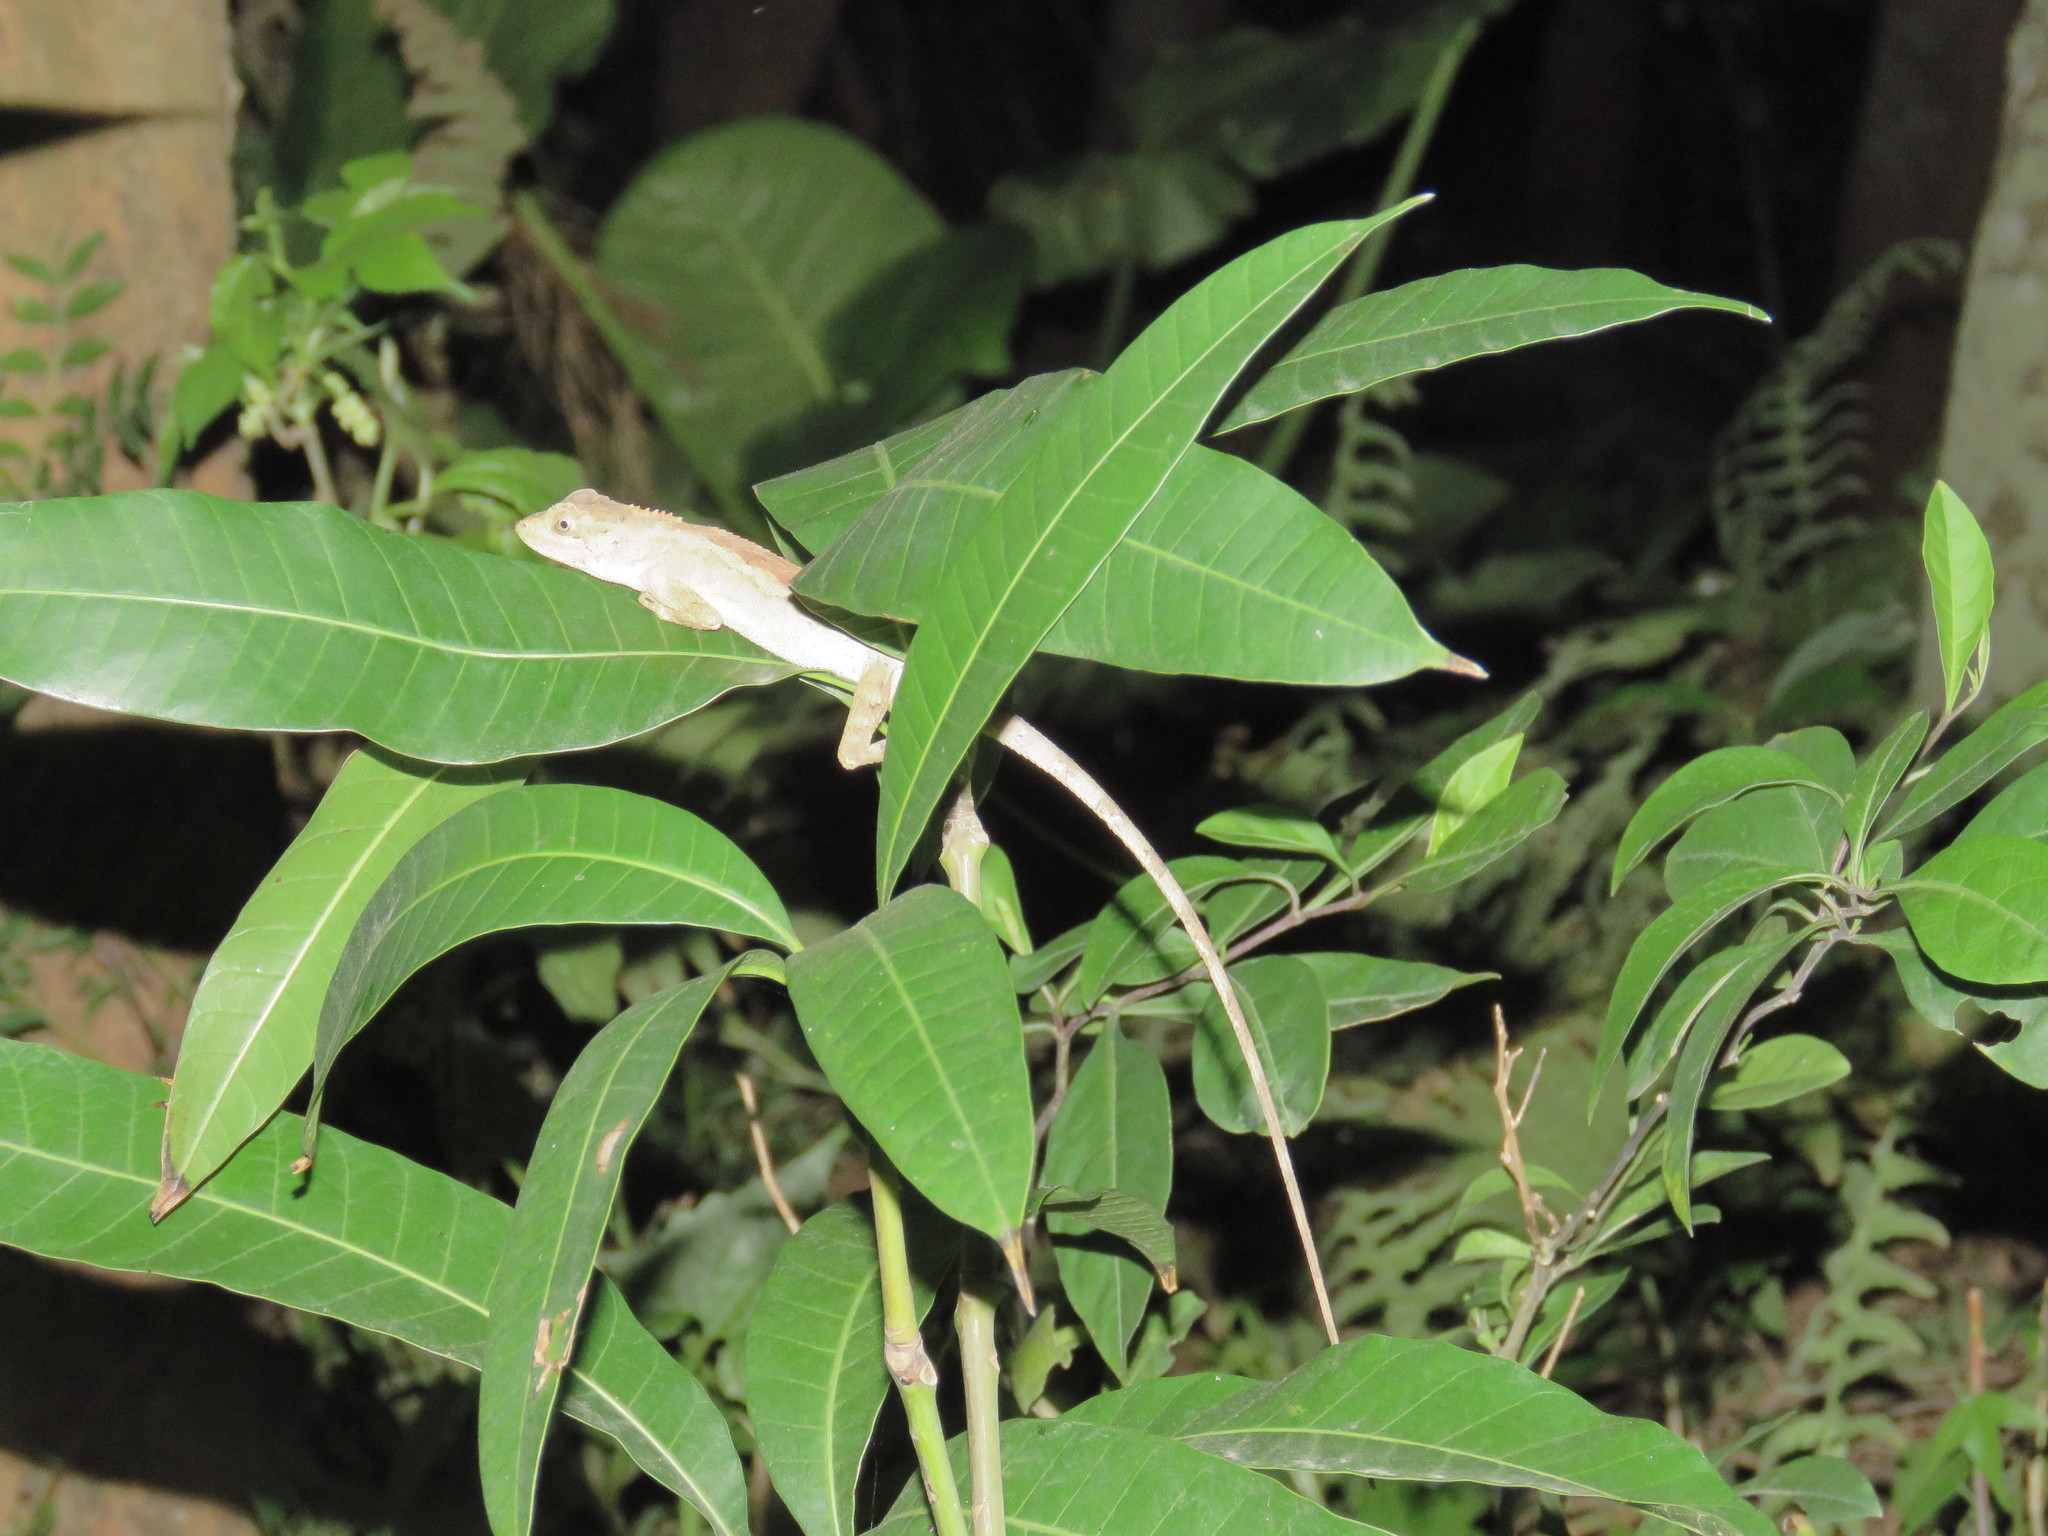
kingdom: Animalia
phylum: Chordata
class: Squamata
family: Agamidae
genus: Diploderma
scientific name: Diploderma swinhonis
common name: Taiwan japalure
